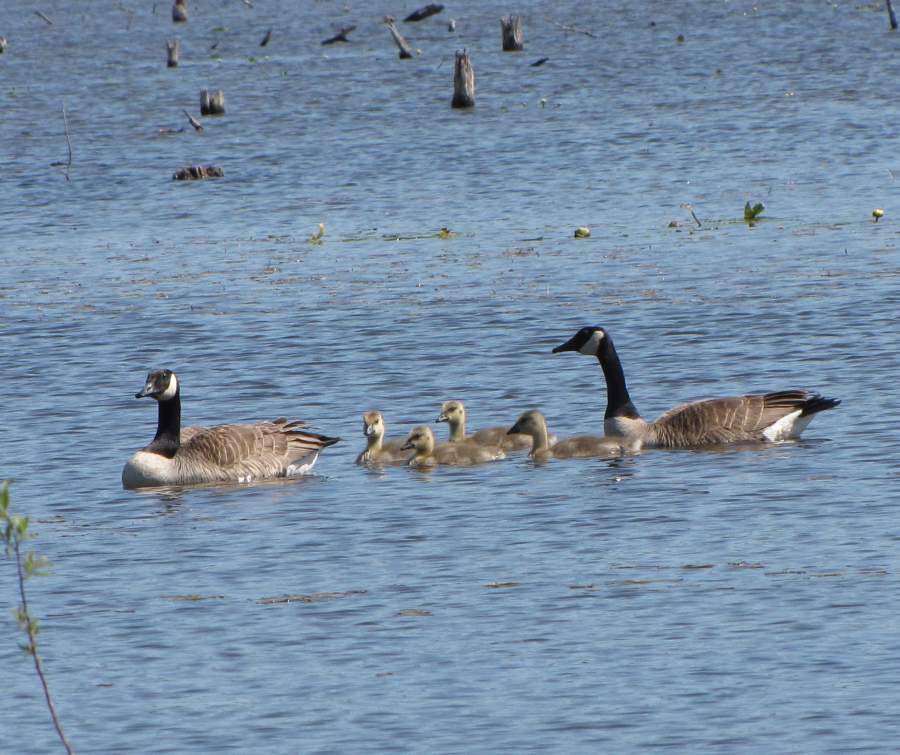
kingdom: Animalia
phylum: Chordata
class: Aves
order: Anseriformes
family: Anatidae
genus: Branta
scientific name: Branta canadensis
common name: Canada goose
